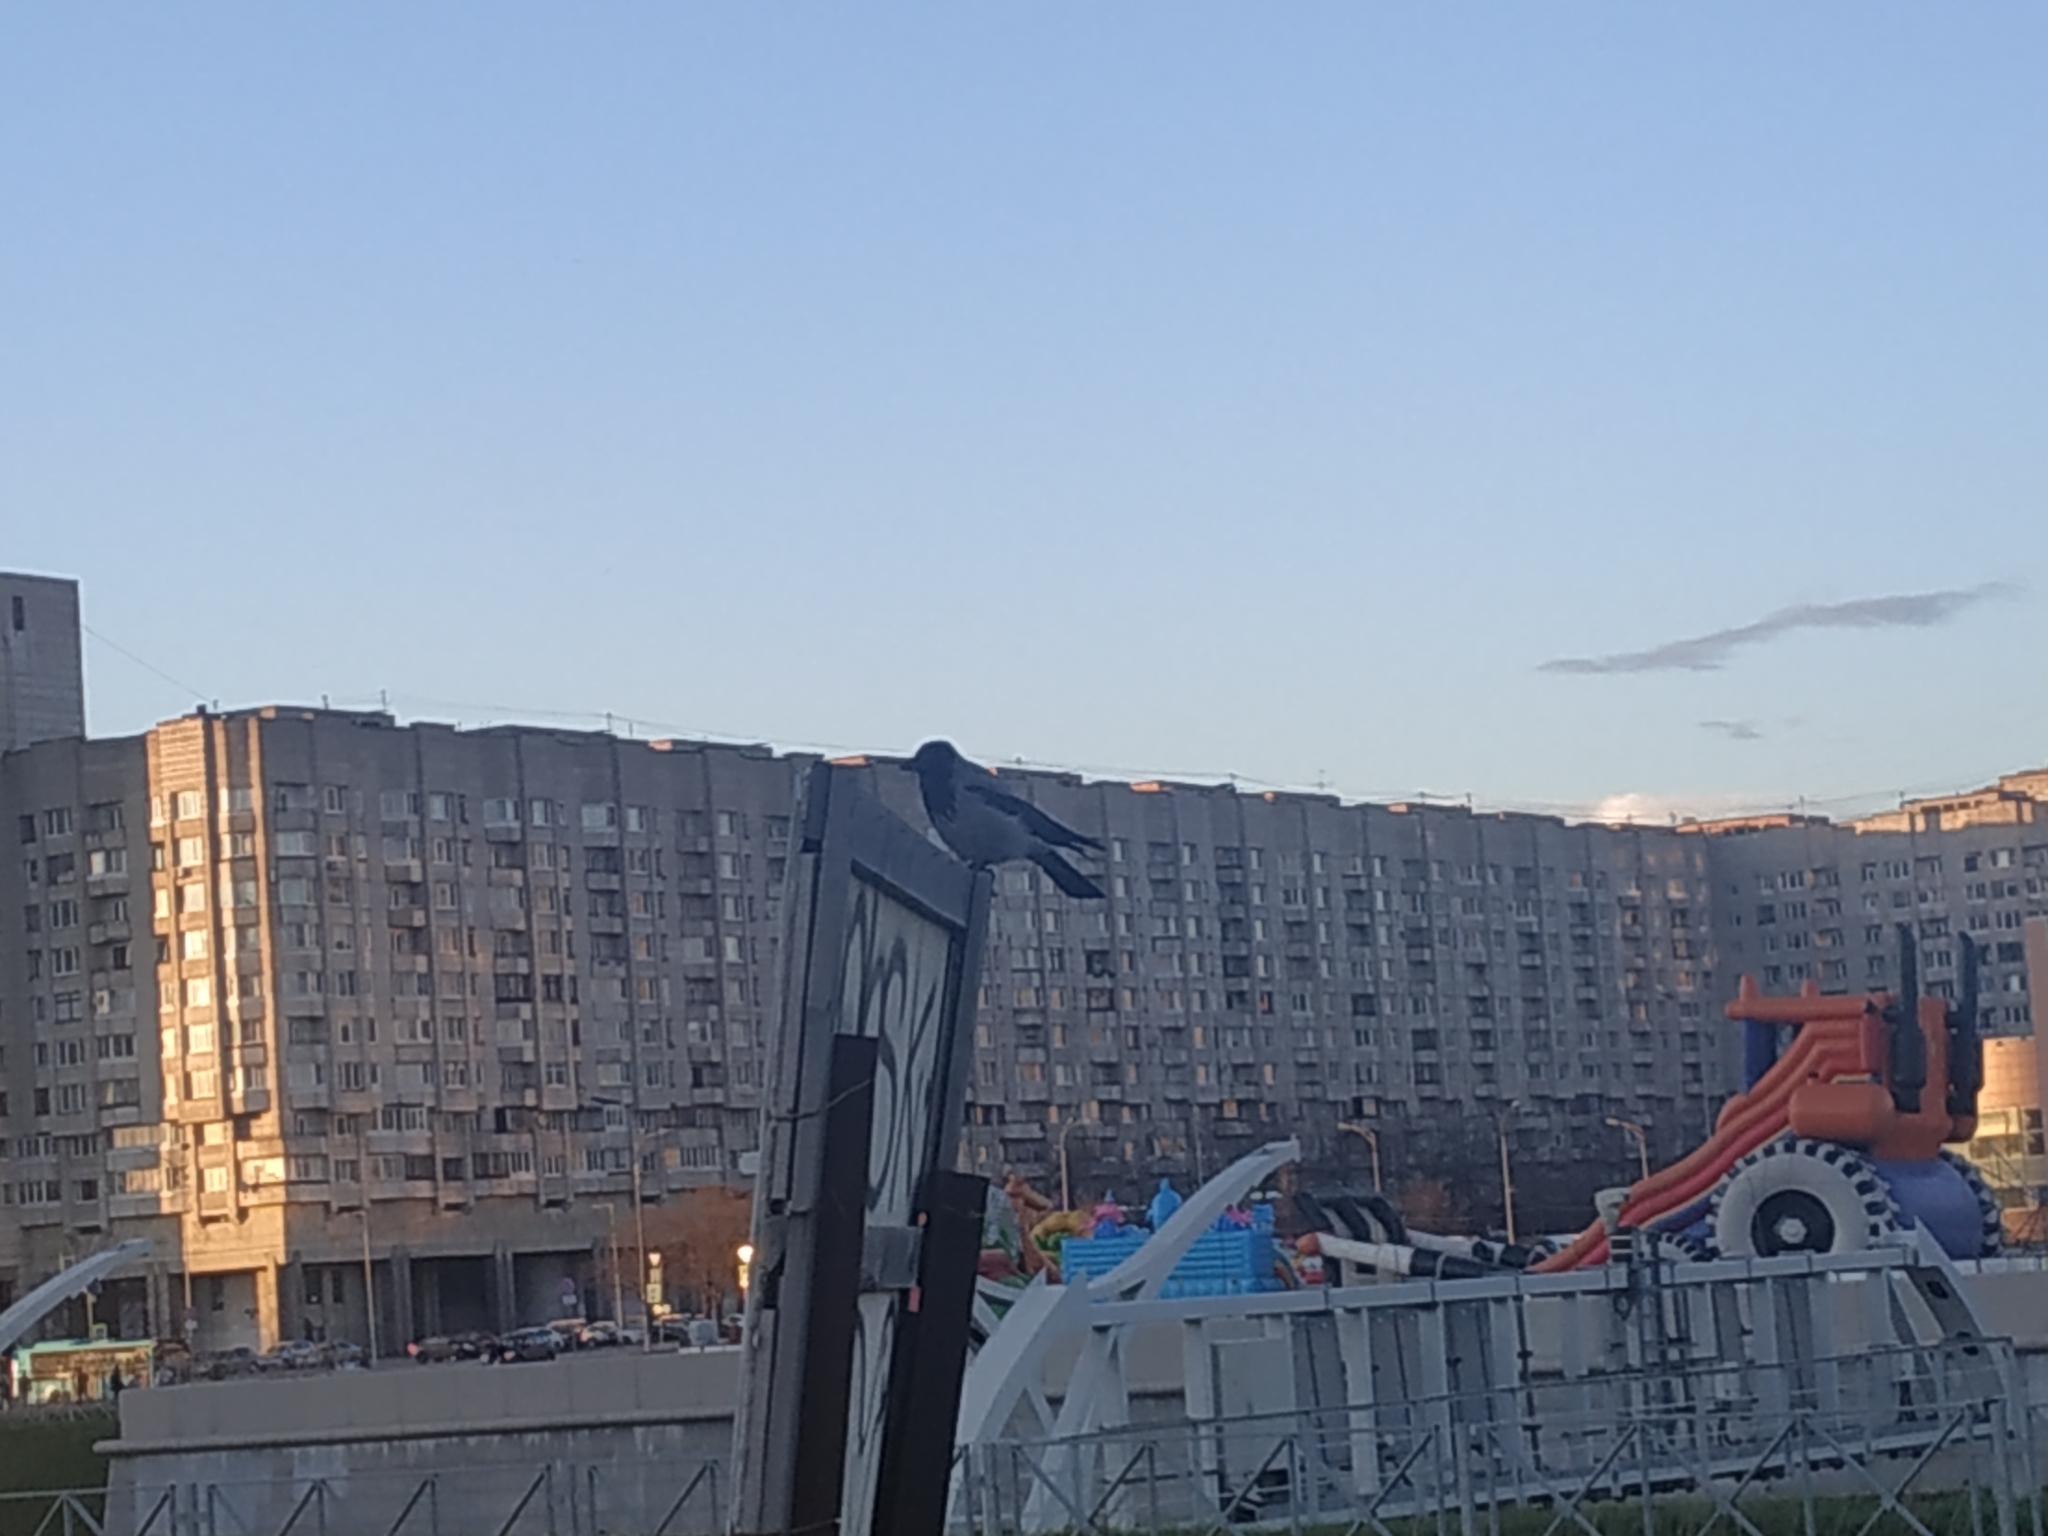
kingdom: Animalia
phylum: Chordata
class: Aves
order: Passeriformes
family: Corvidae
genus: Corvus
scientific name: Corvus cornix
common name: Hooded crow
